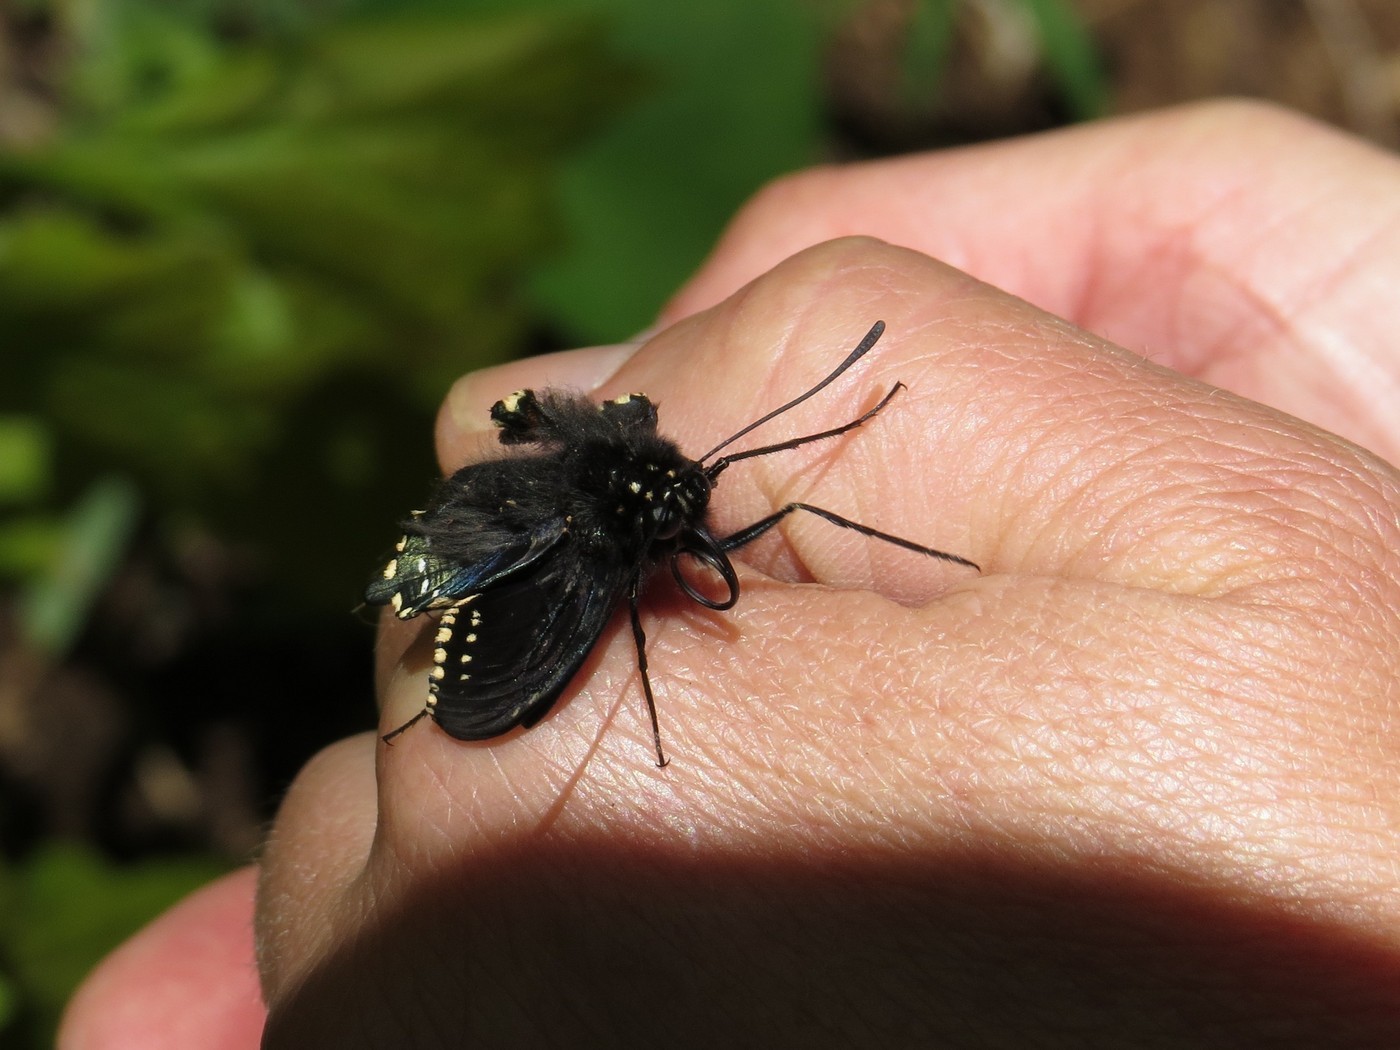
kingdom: Animalia
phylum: Arthropoda
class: Insecta
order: Lepidoptera
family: Papilionidae
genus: Battus
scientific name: Battus philenor
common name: Pipevine swallowtail
